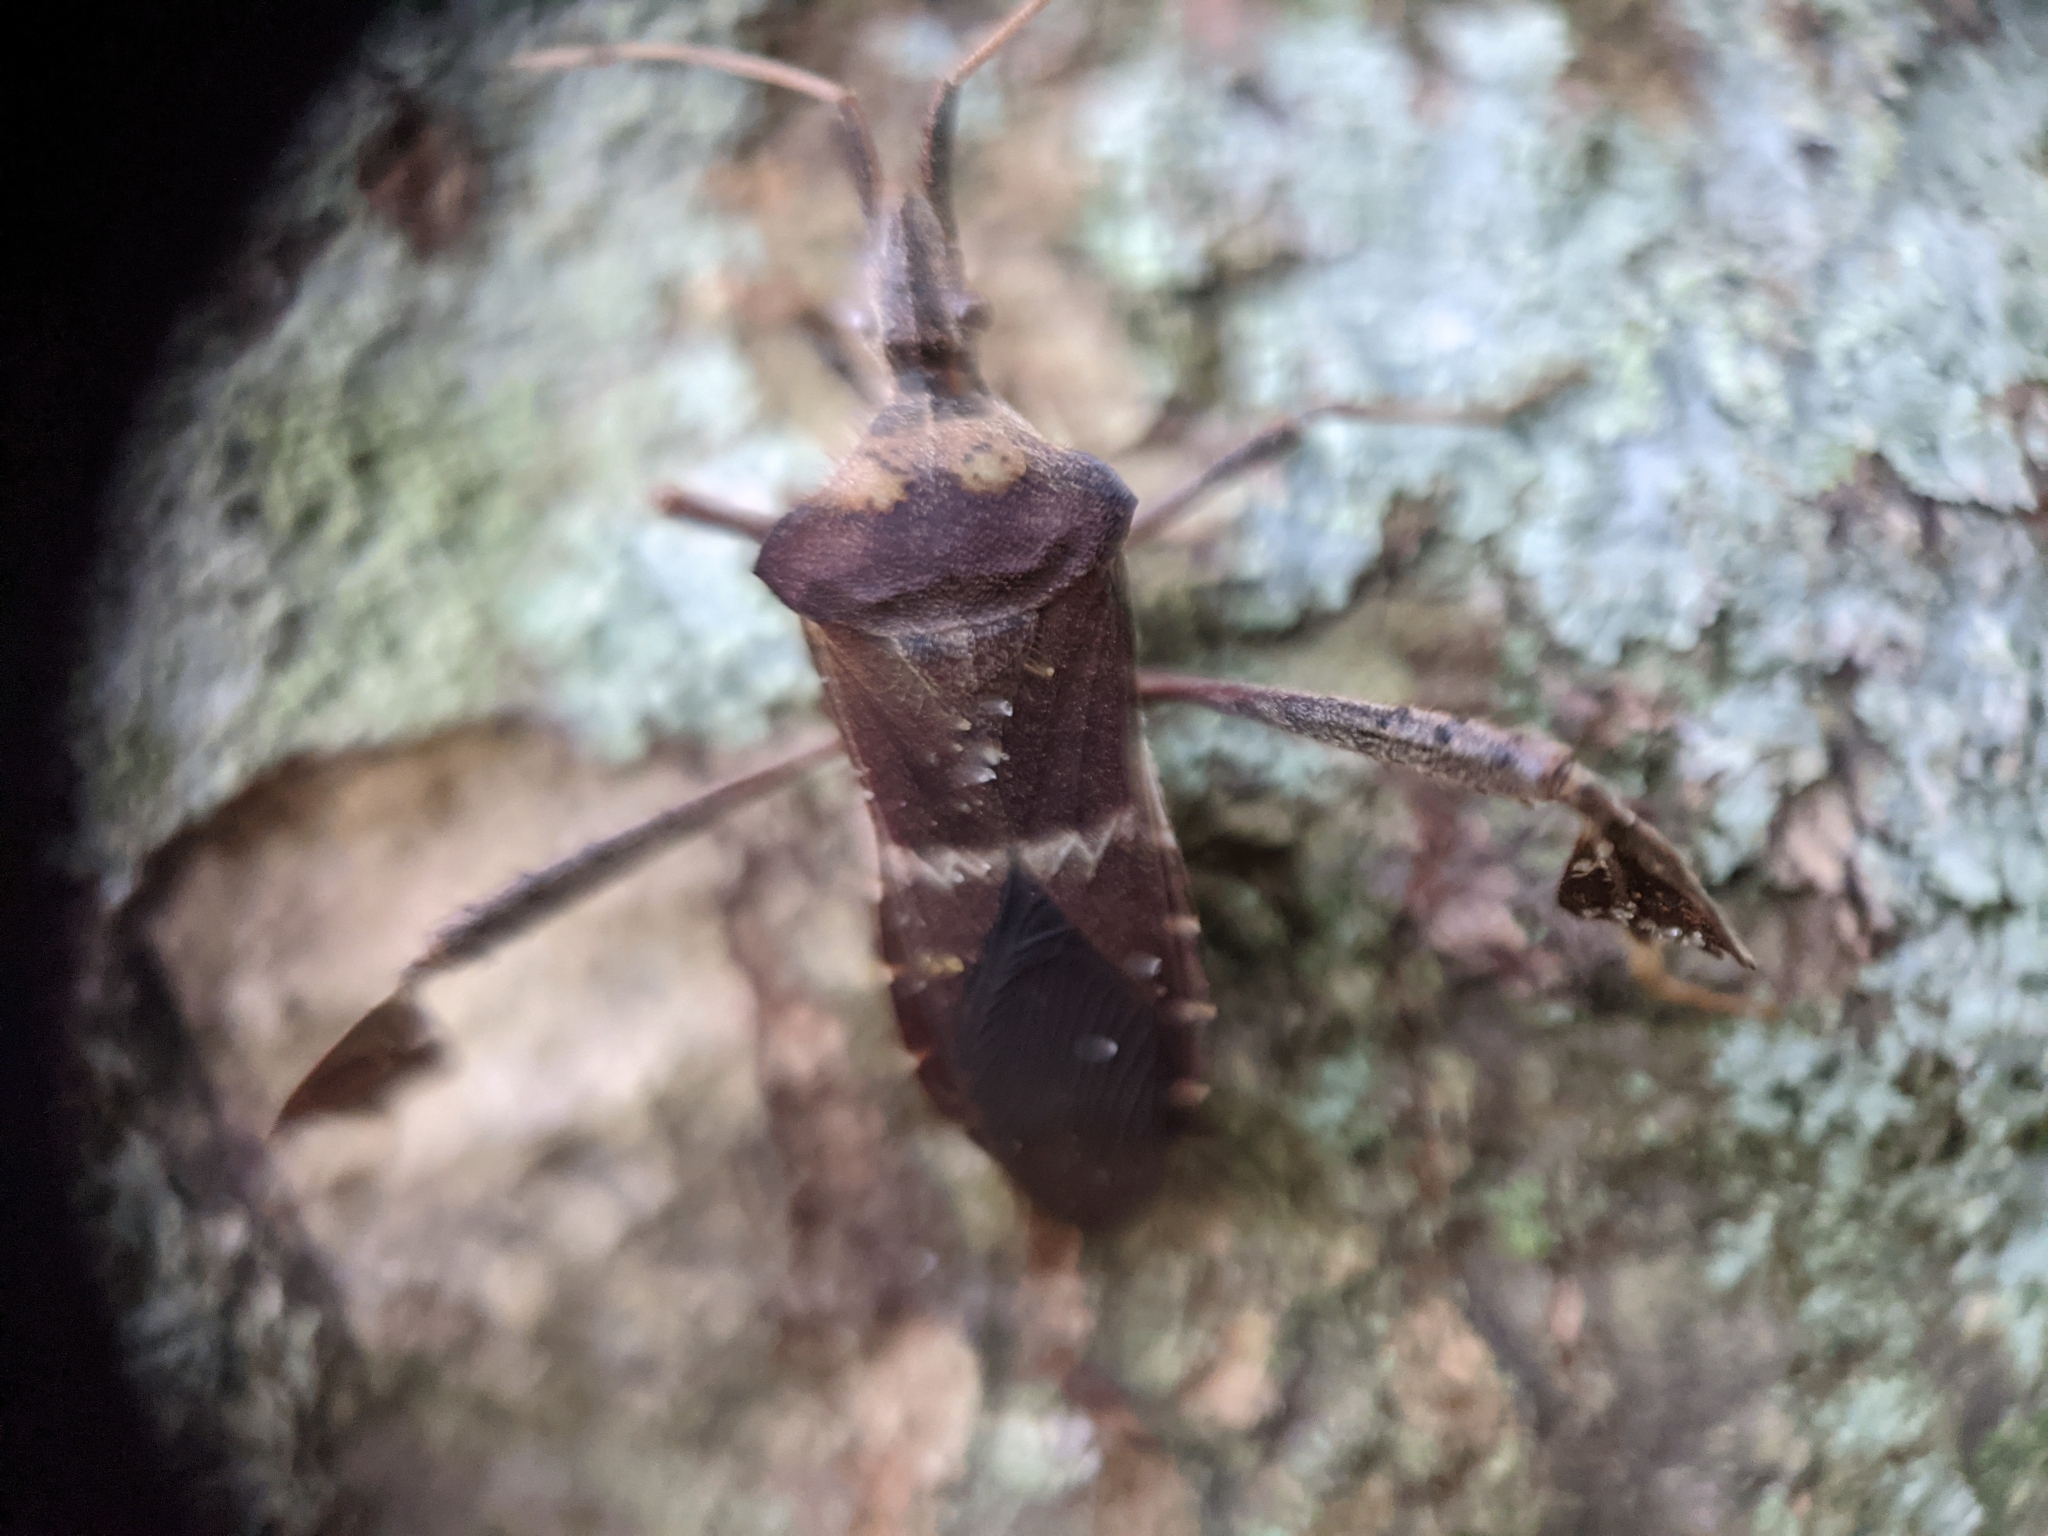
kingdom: Animalia
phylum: Arthropoda
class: Insecta
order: Hemiptera
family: Coreidae
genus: Leptoglossus
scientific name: Leptoglossus zonatus
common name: Large-legged bug
